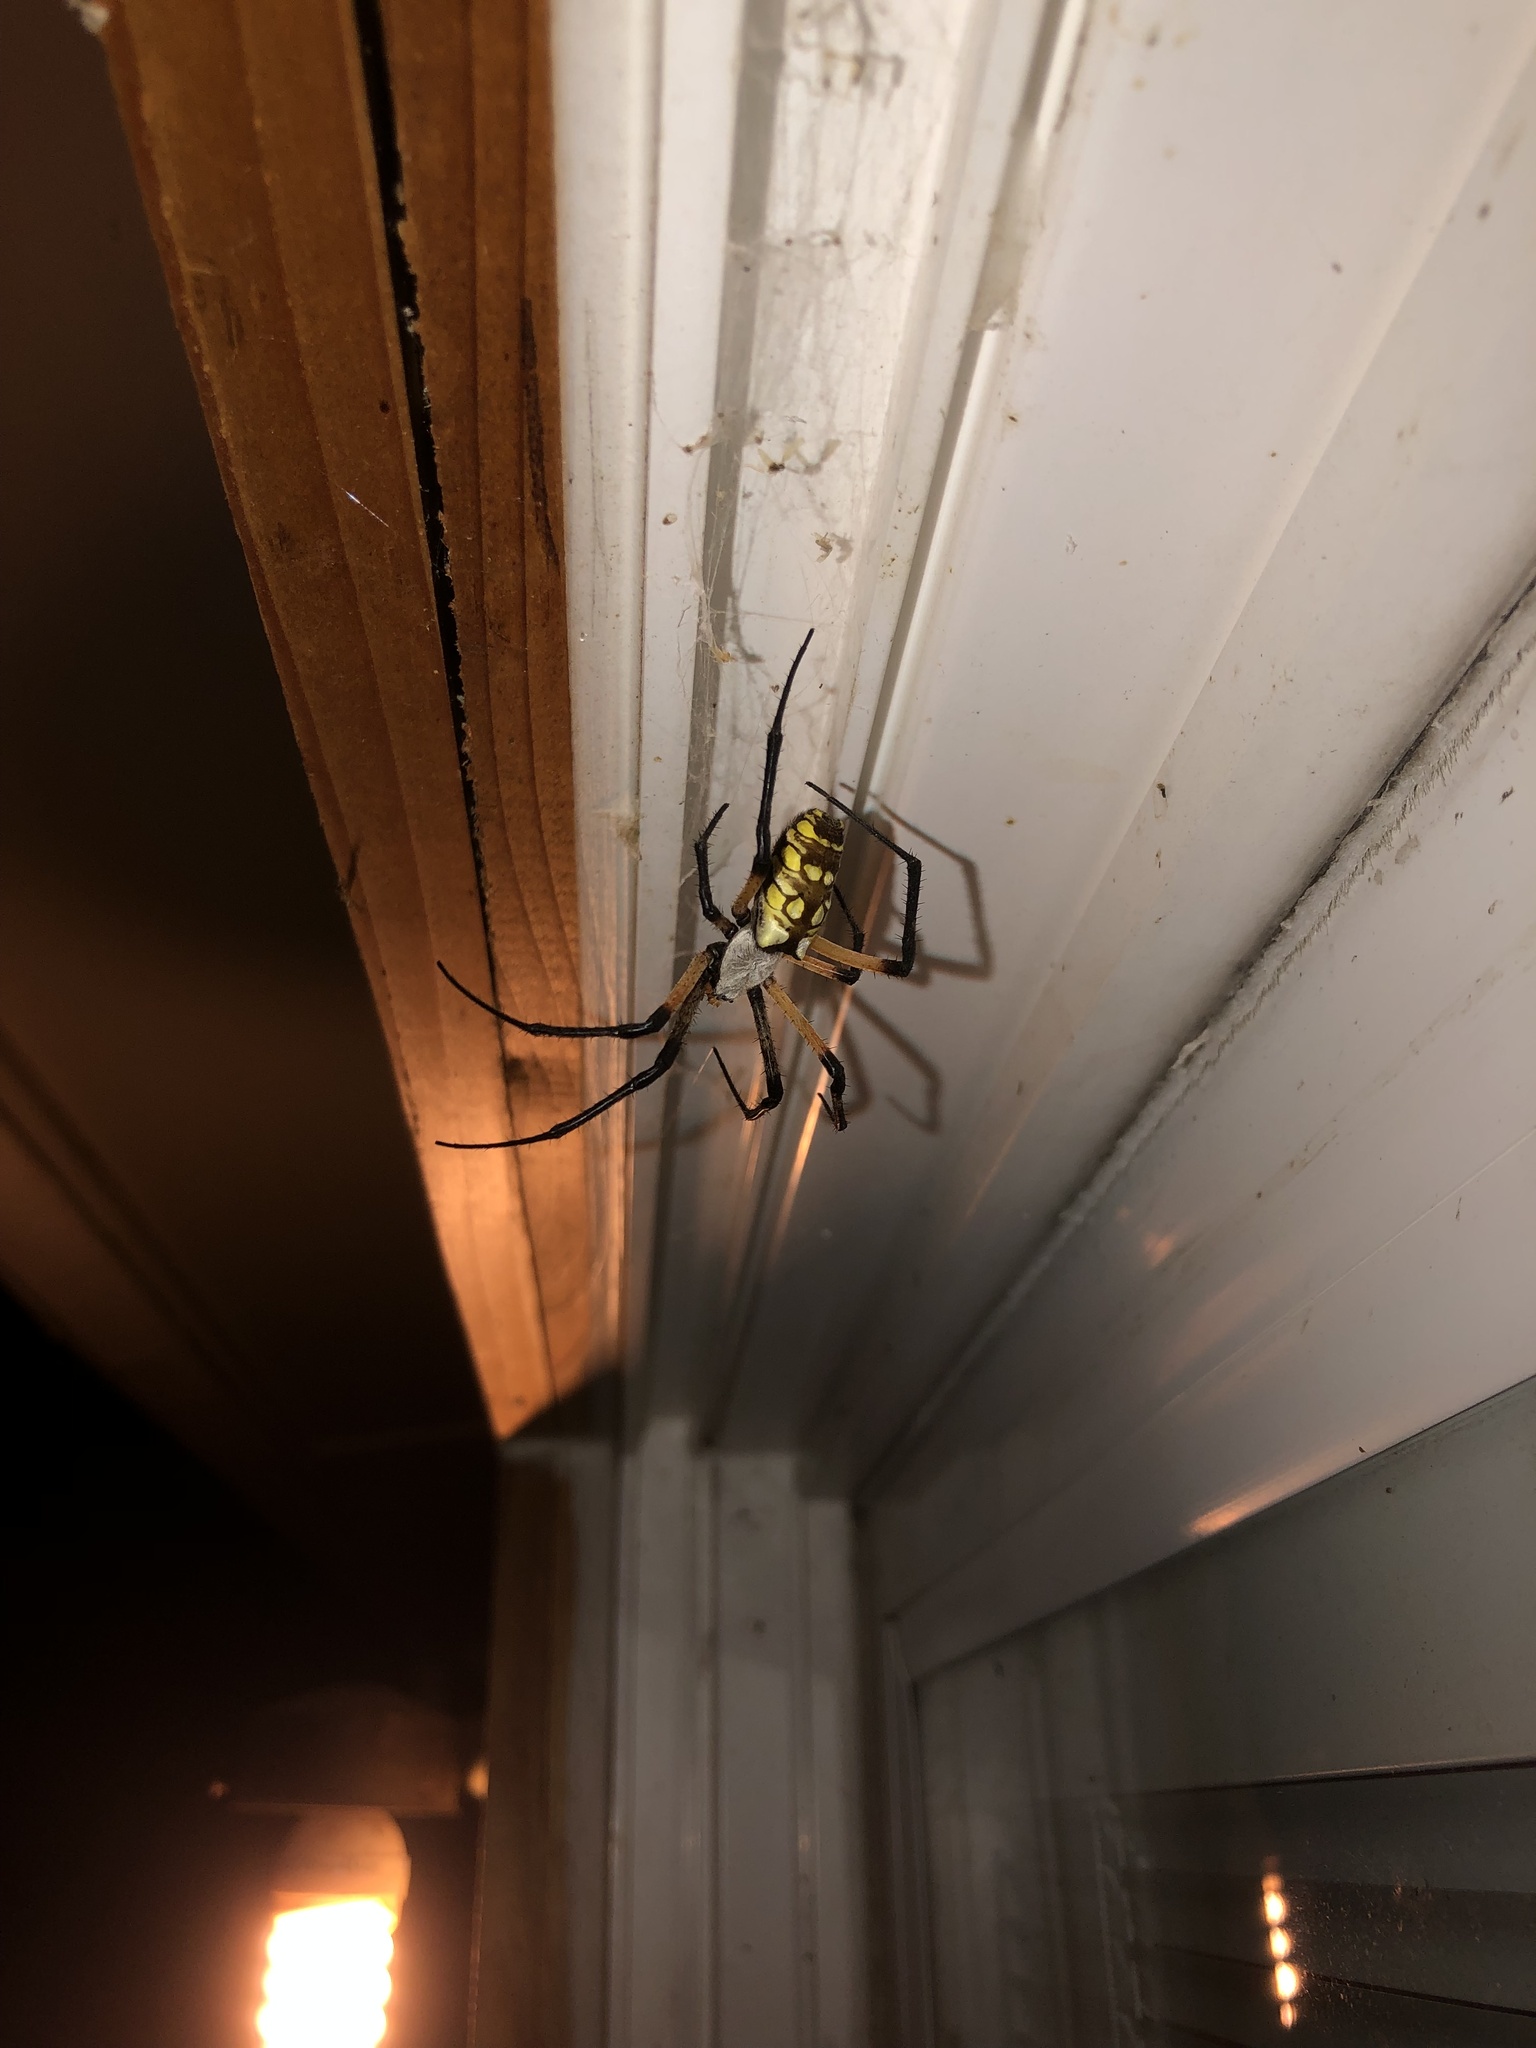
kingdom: Animalia
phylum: Arthropoda
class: Arachnida
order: Araneae
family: Araneidae
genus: Argiope
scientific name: Argiope aurantia
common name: Orb weavers
